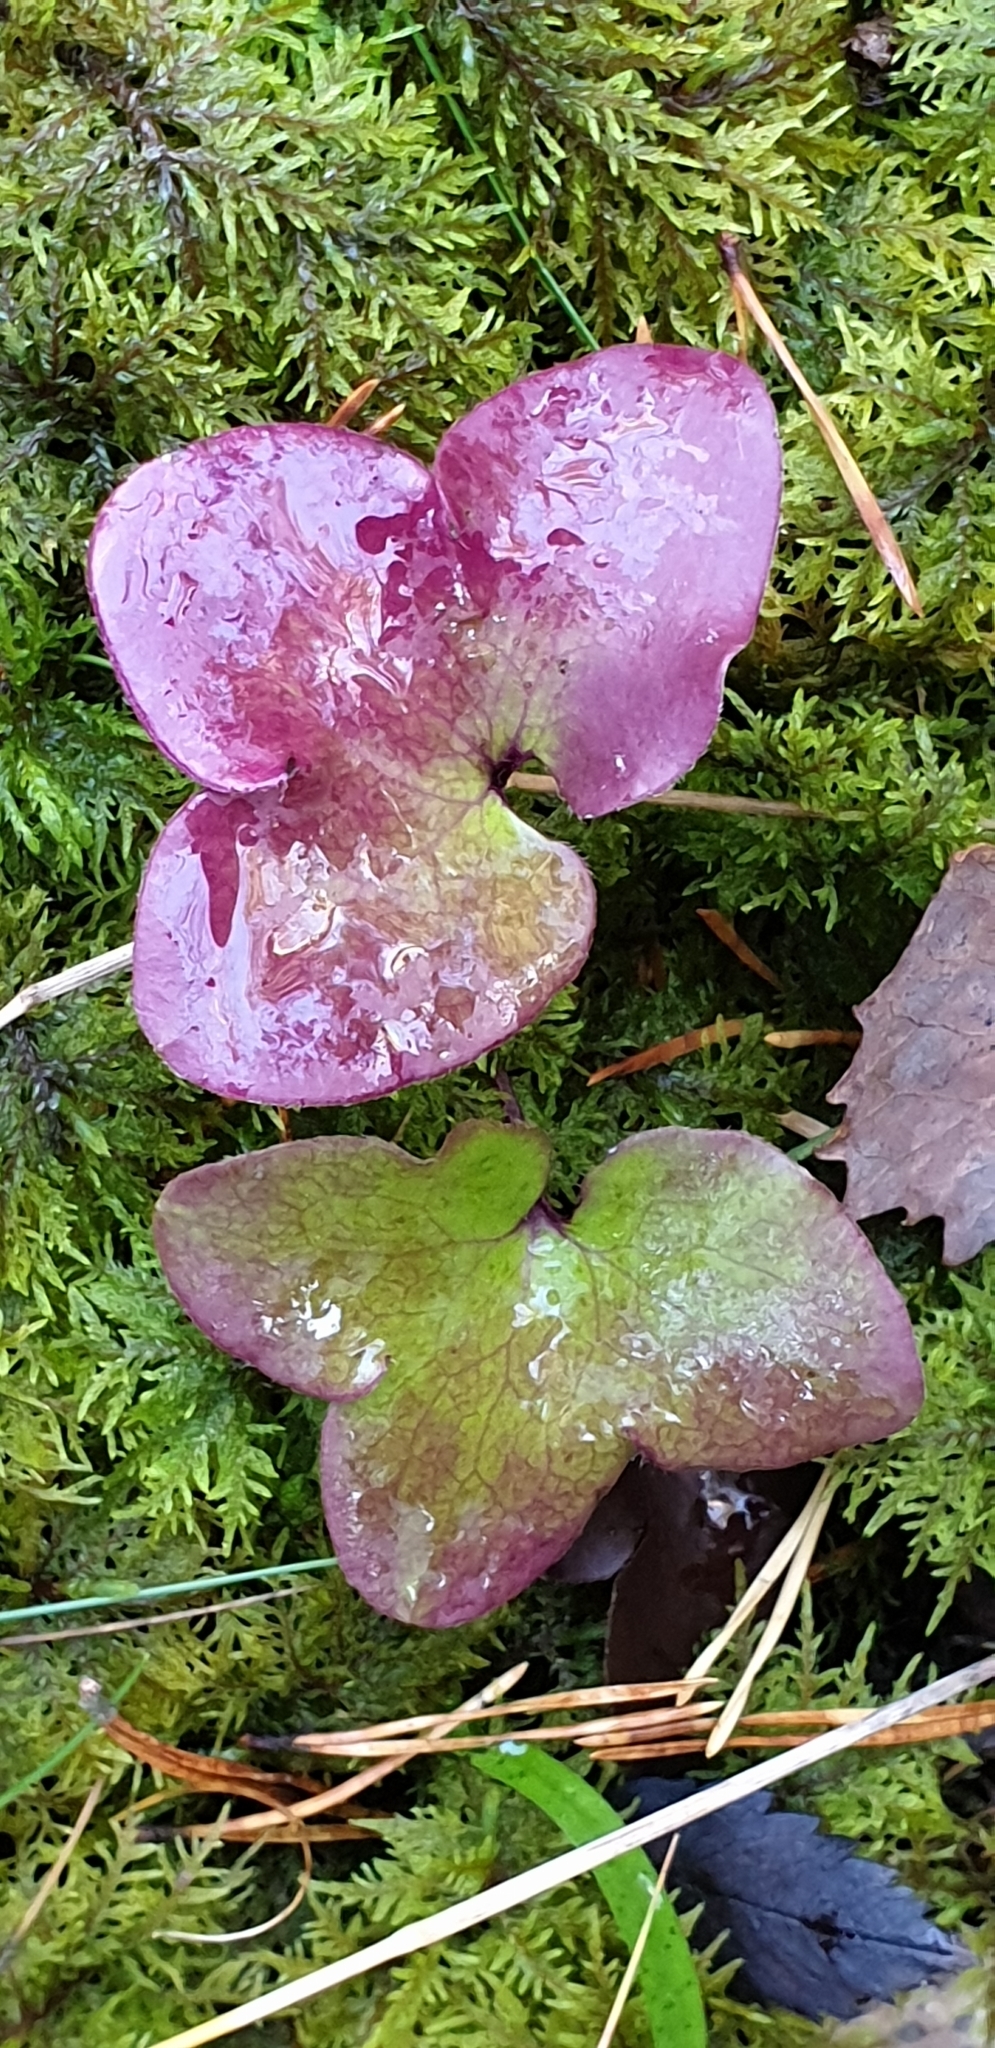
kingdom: Plantae
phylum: Tracheophyta
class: Magnoliopsida
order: Ranunculales
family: Ranunculaceae
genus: Hepatica
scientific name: Hepatica nobilis
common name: Liverleaf
